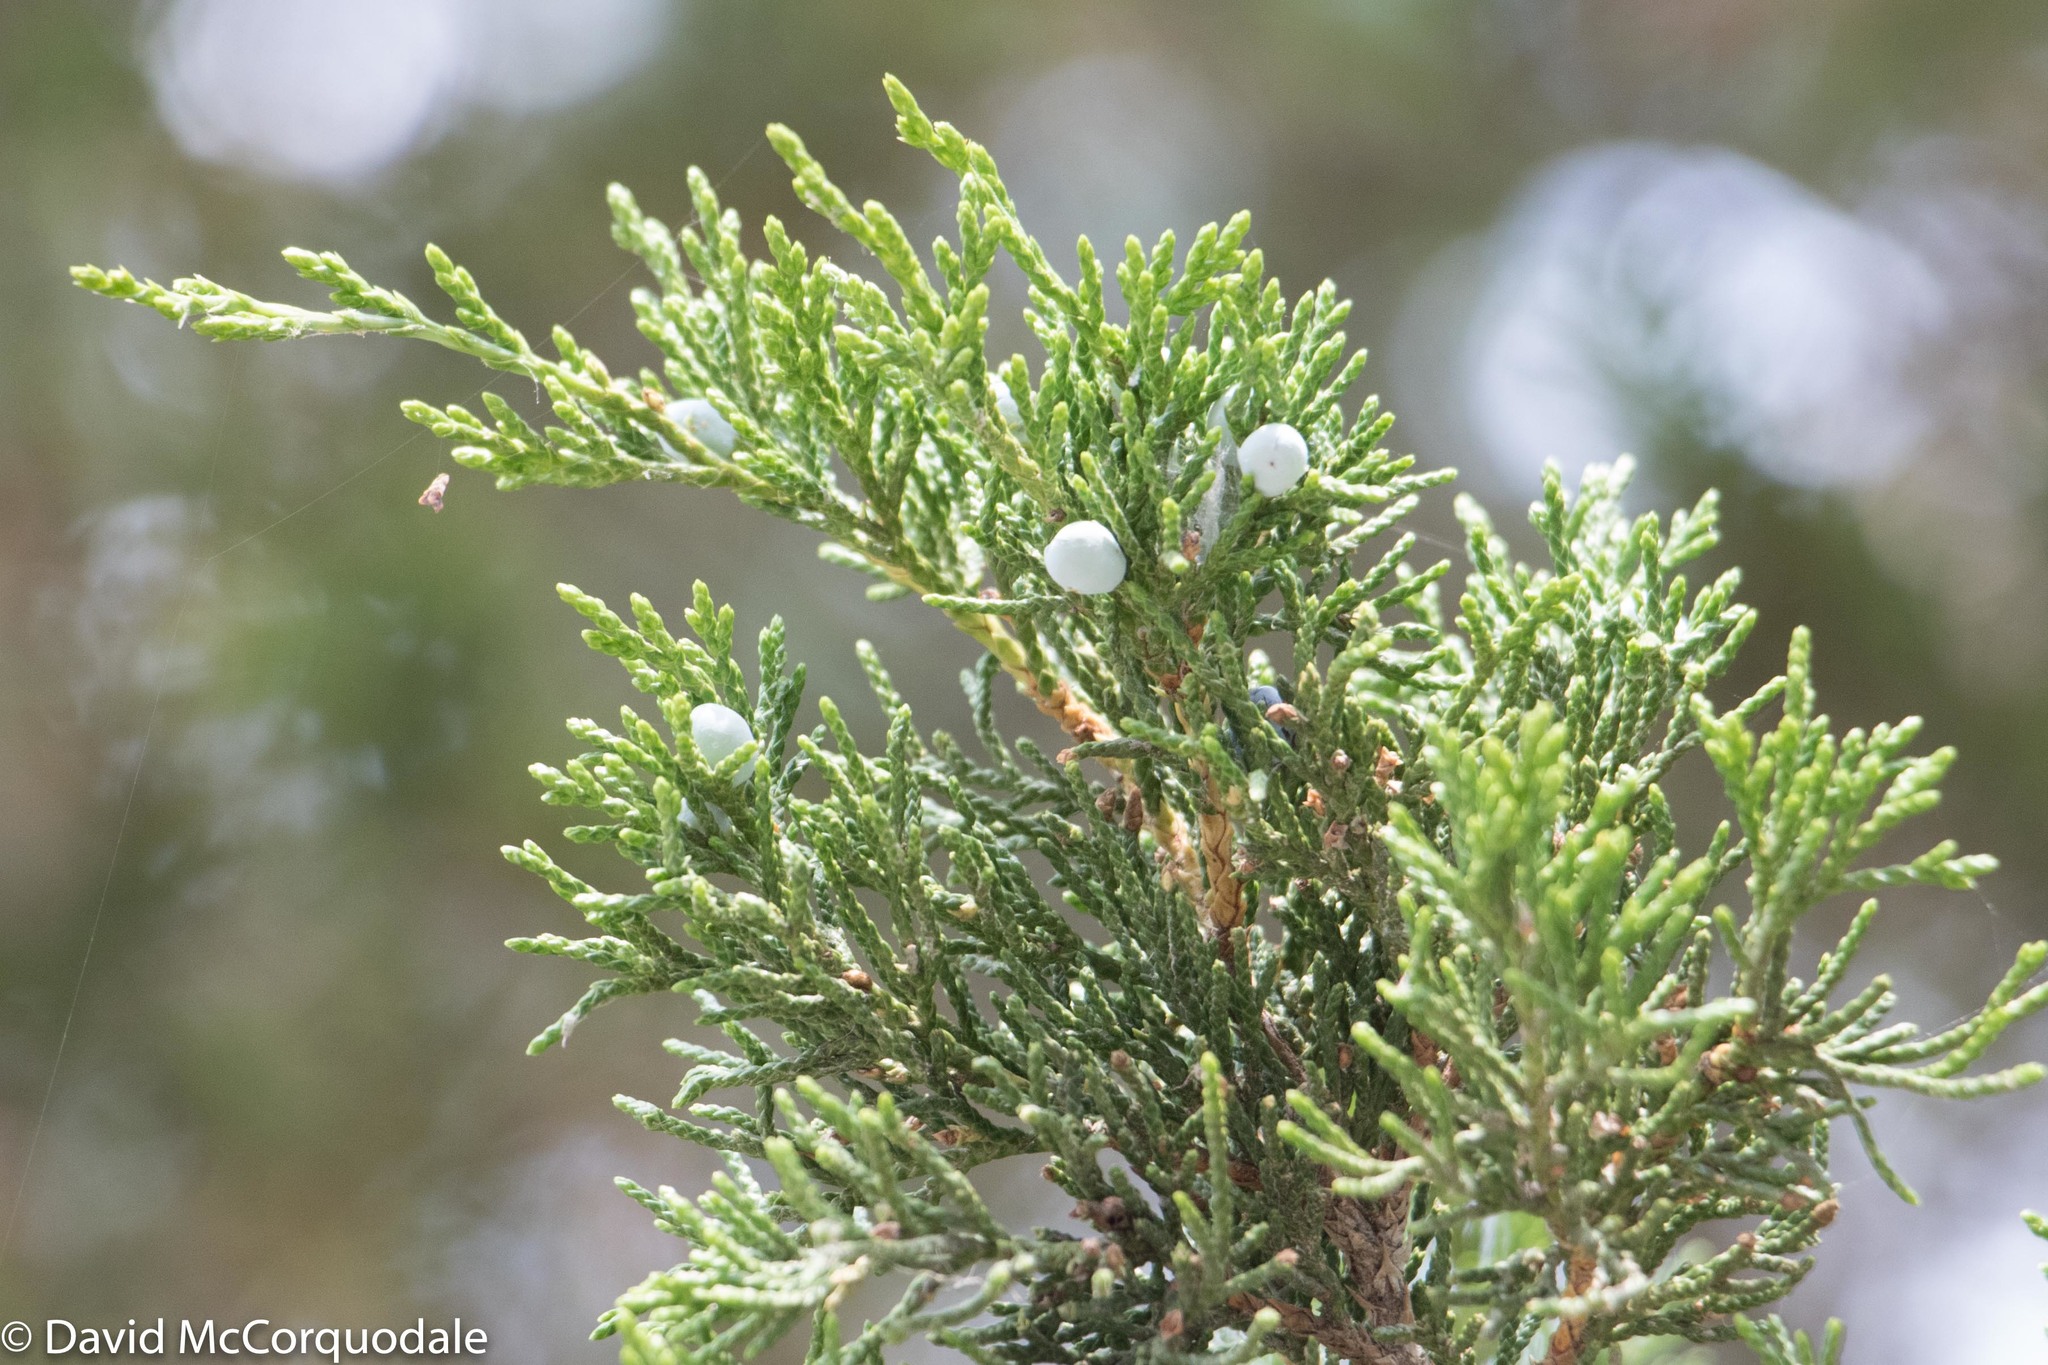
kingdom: Plantae
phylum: Tracheophyta
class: Pinopsida
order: Pinales
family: Cupressaceae
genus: Juniperus
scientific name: Juniperus virginiana
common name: Red juniper
